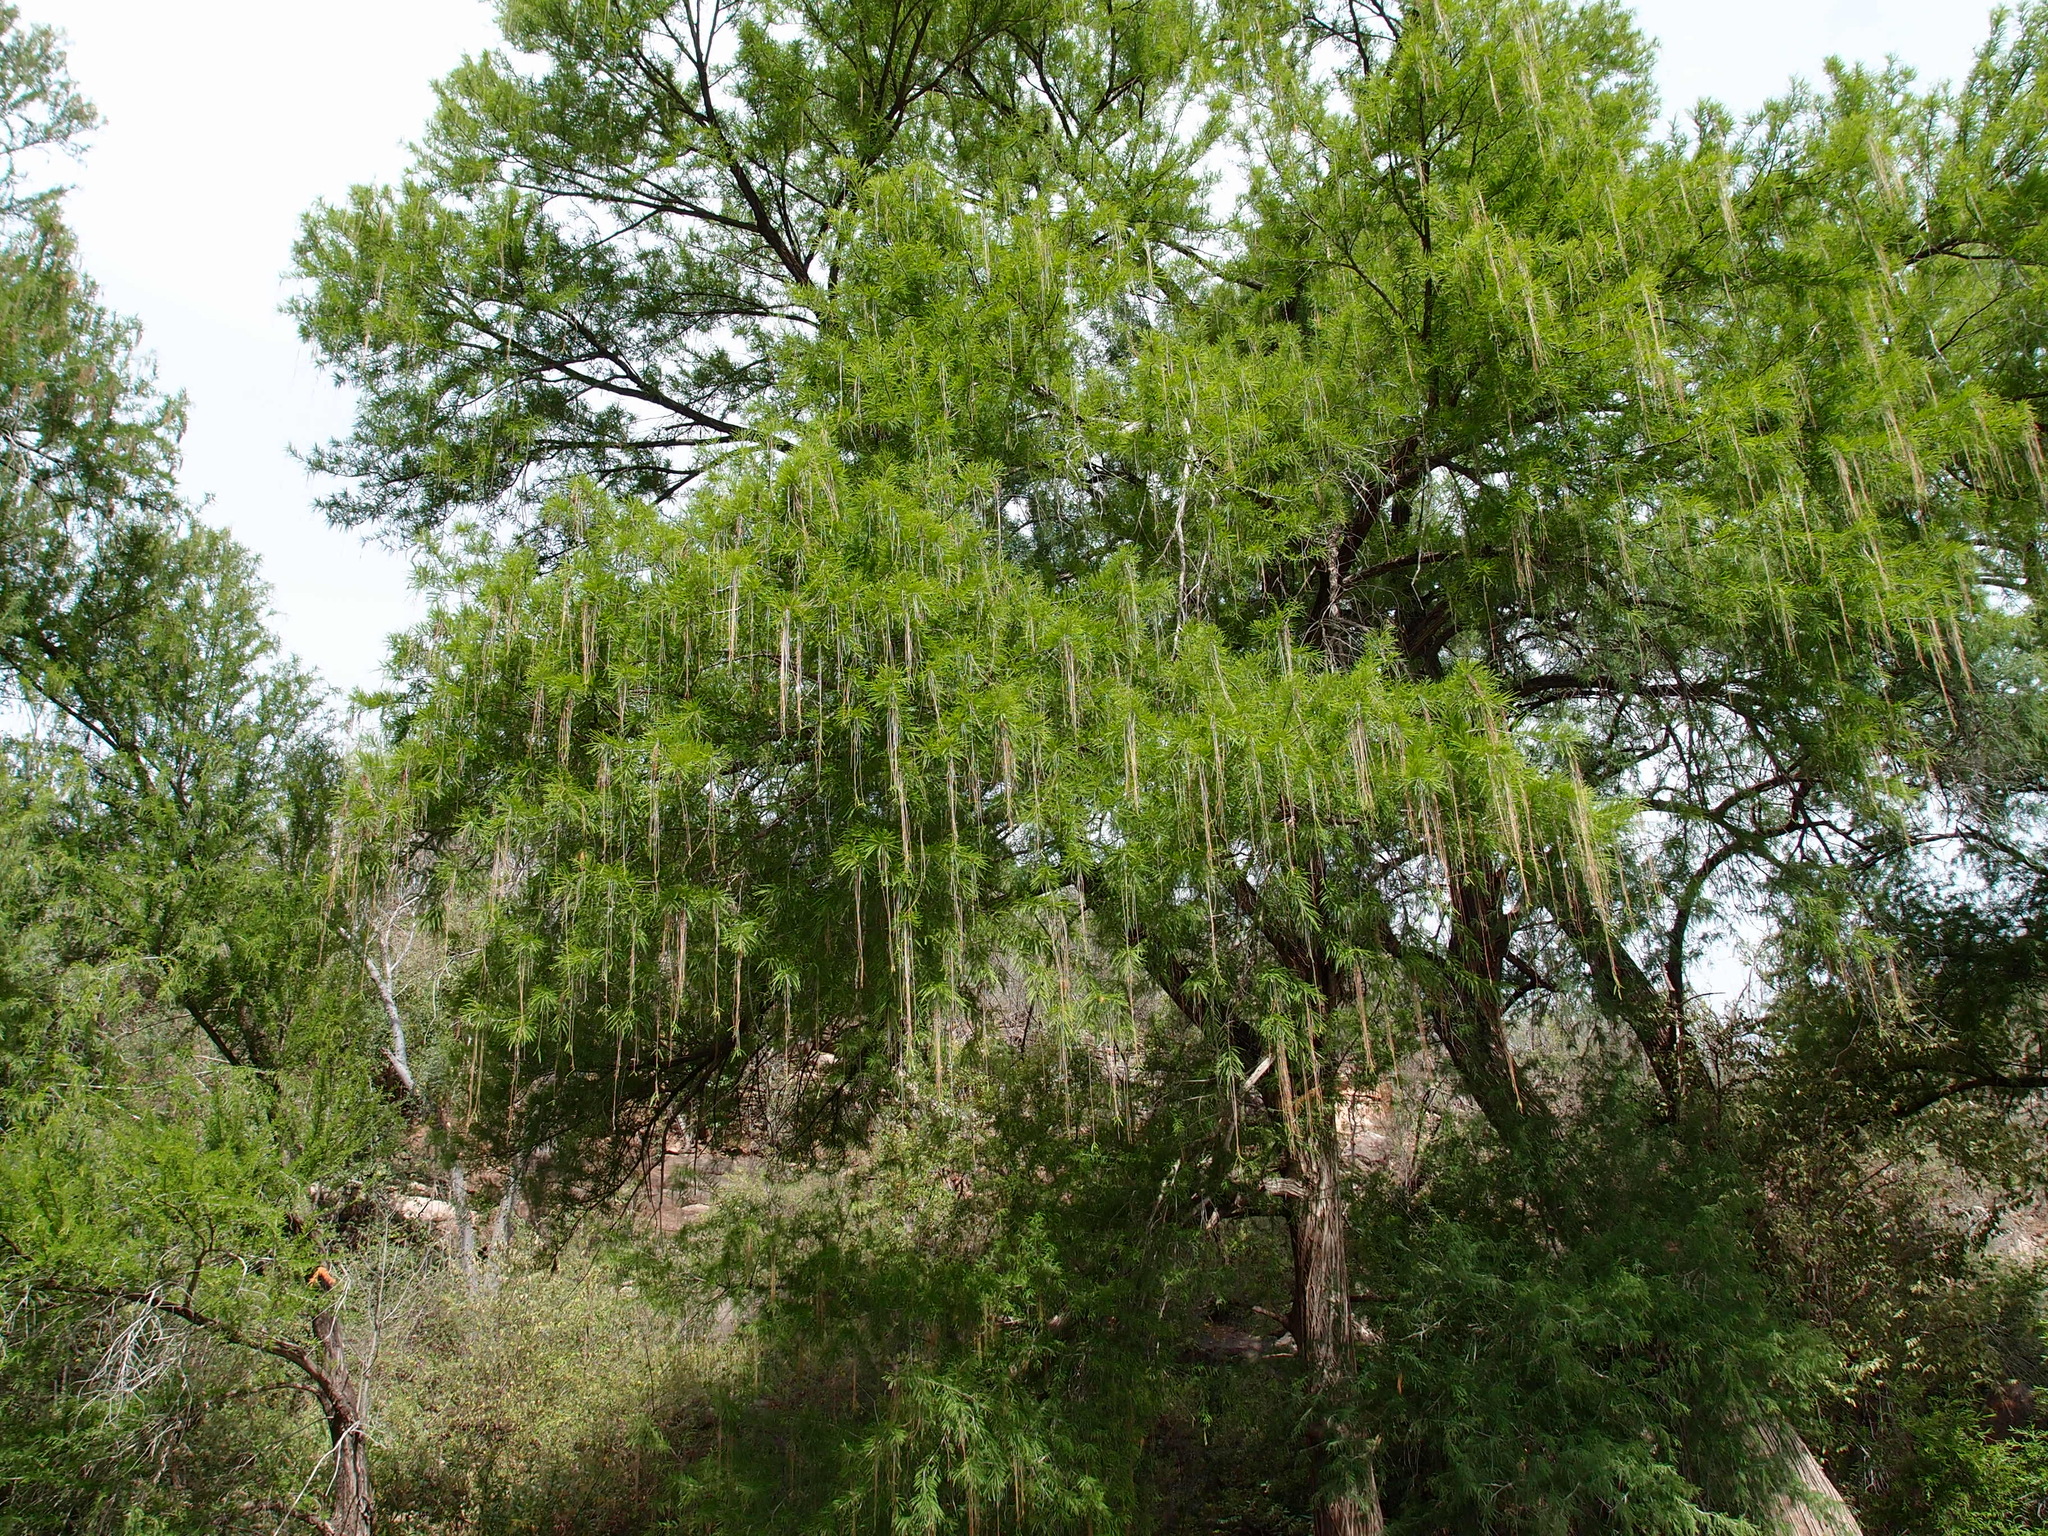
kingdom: Plantae
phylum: Tracheophyta
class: Pinopsida
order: Pinales
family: Cupressaceae
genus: Taxodium
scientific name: Taxodium mucronatum
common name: Montezume bald cypress
